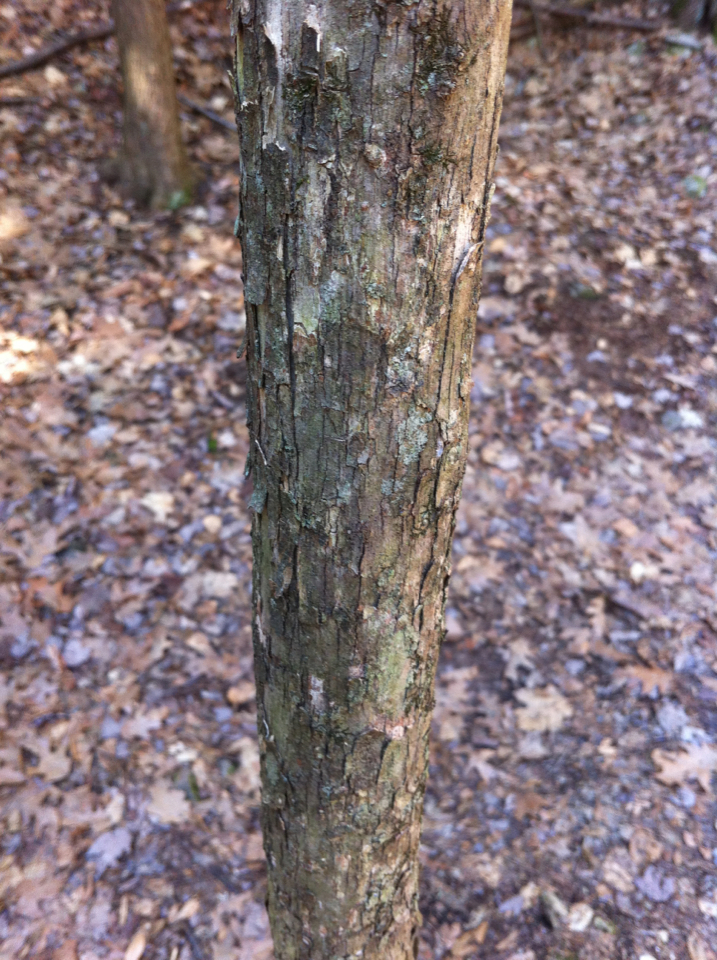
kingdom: Plantae
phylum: Tracheophyta
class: Magnoliopsida
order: Fagales
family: Betulaceae
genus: Ostrya
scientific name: Ostrya virginiana
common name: Ironwood
